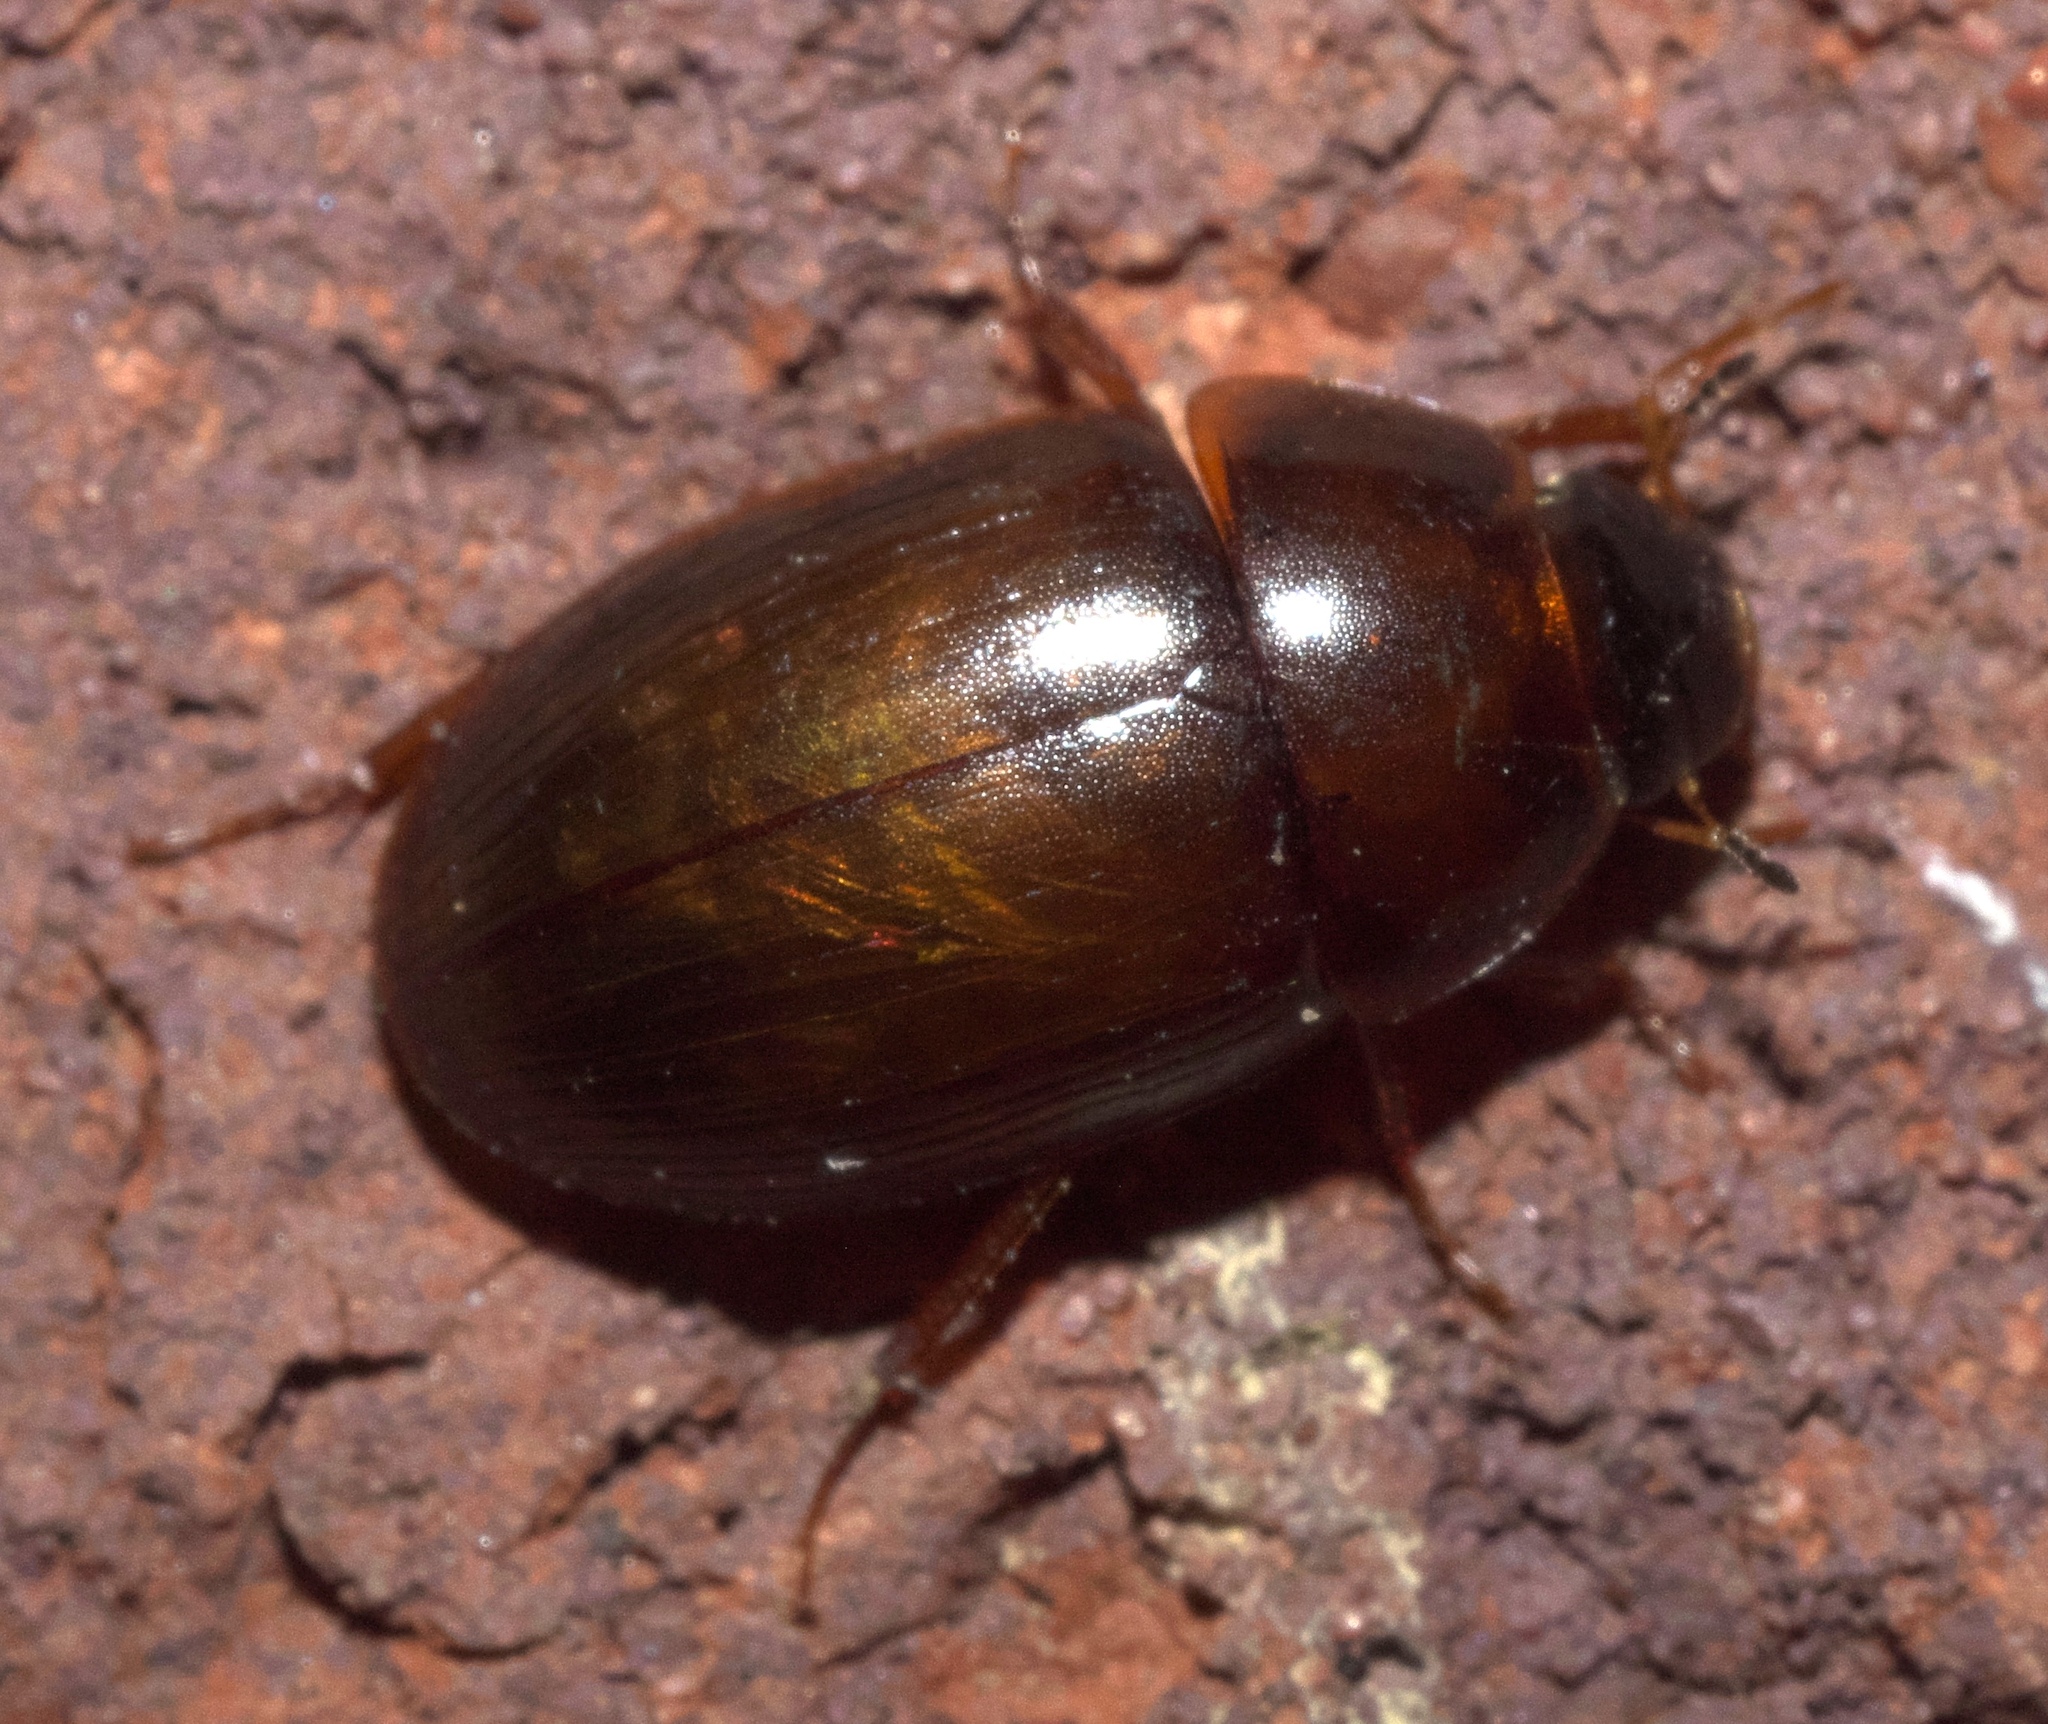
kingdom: Animalia
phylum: Arthropoda
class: Insecta
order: Coleoptera
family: Hydrophilidae
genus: Cymbiodyta
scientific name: Cymbiodyta bifida
